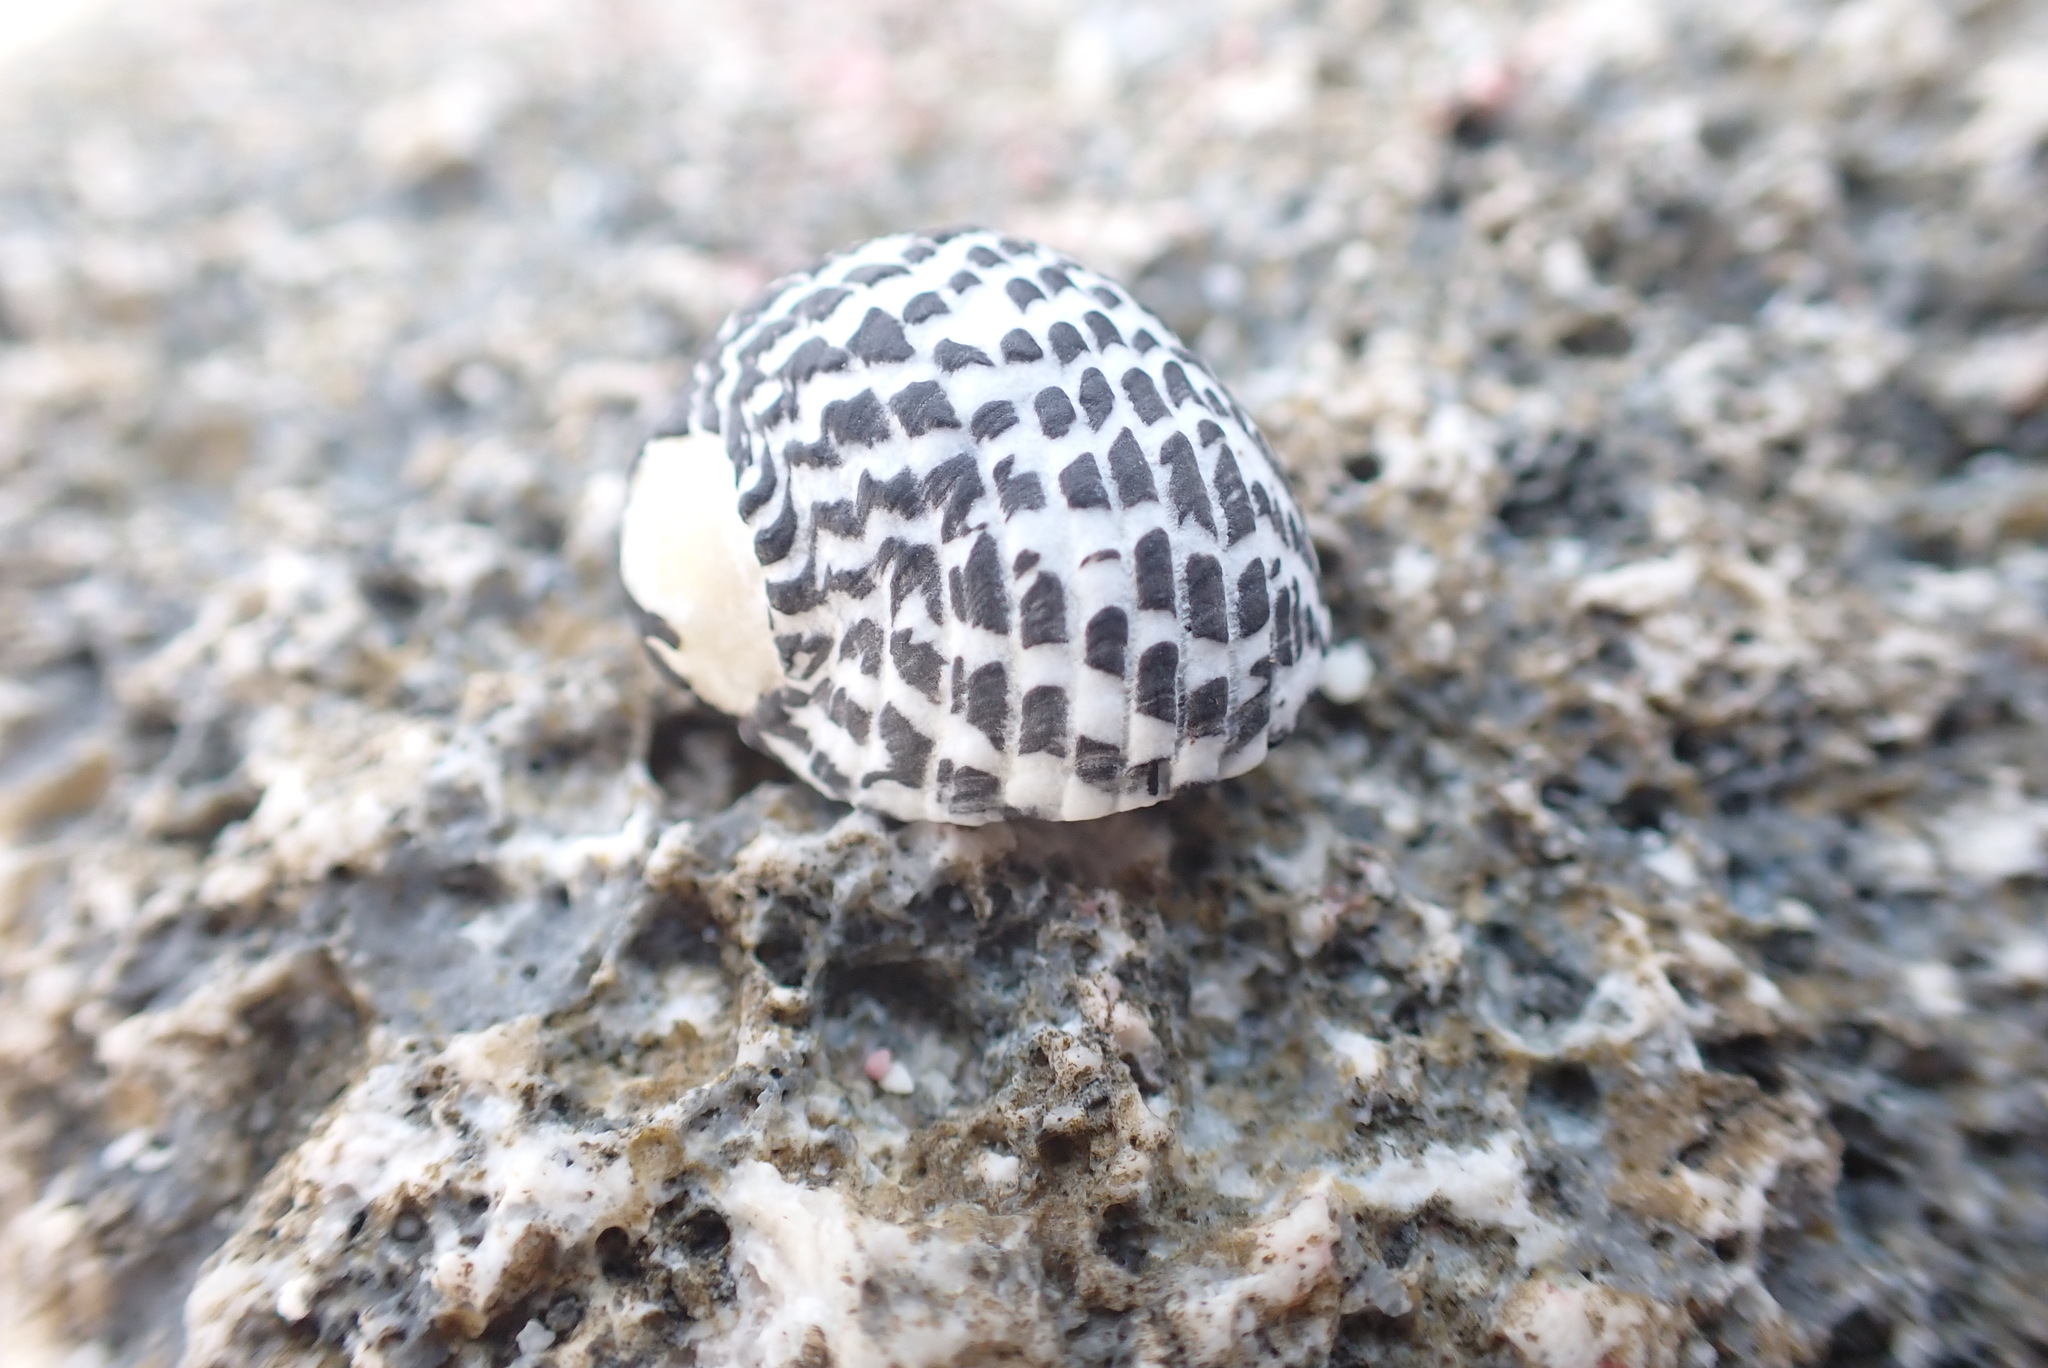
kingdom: Animalia
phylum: Mollusca
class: Gastropoda
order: Cycloneritida
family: Neritidae
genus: Nerita
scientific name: Nerita tessellata
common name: Checkered nerite
